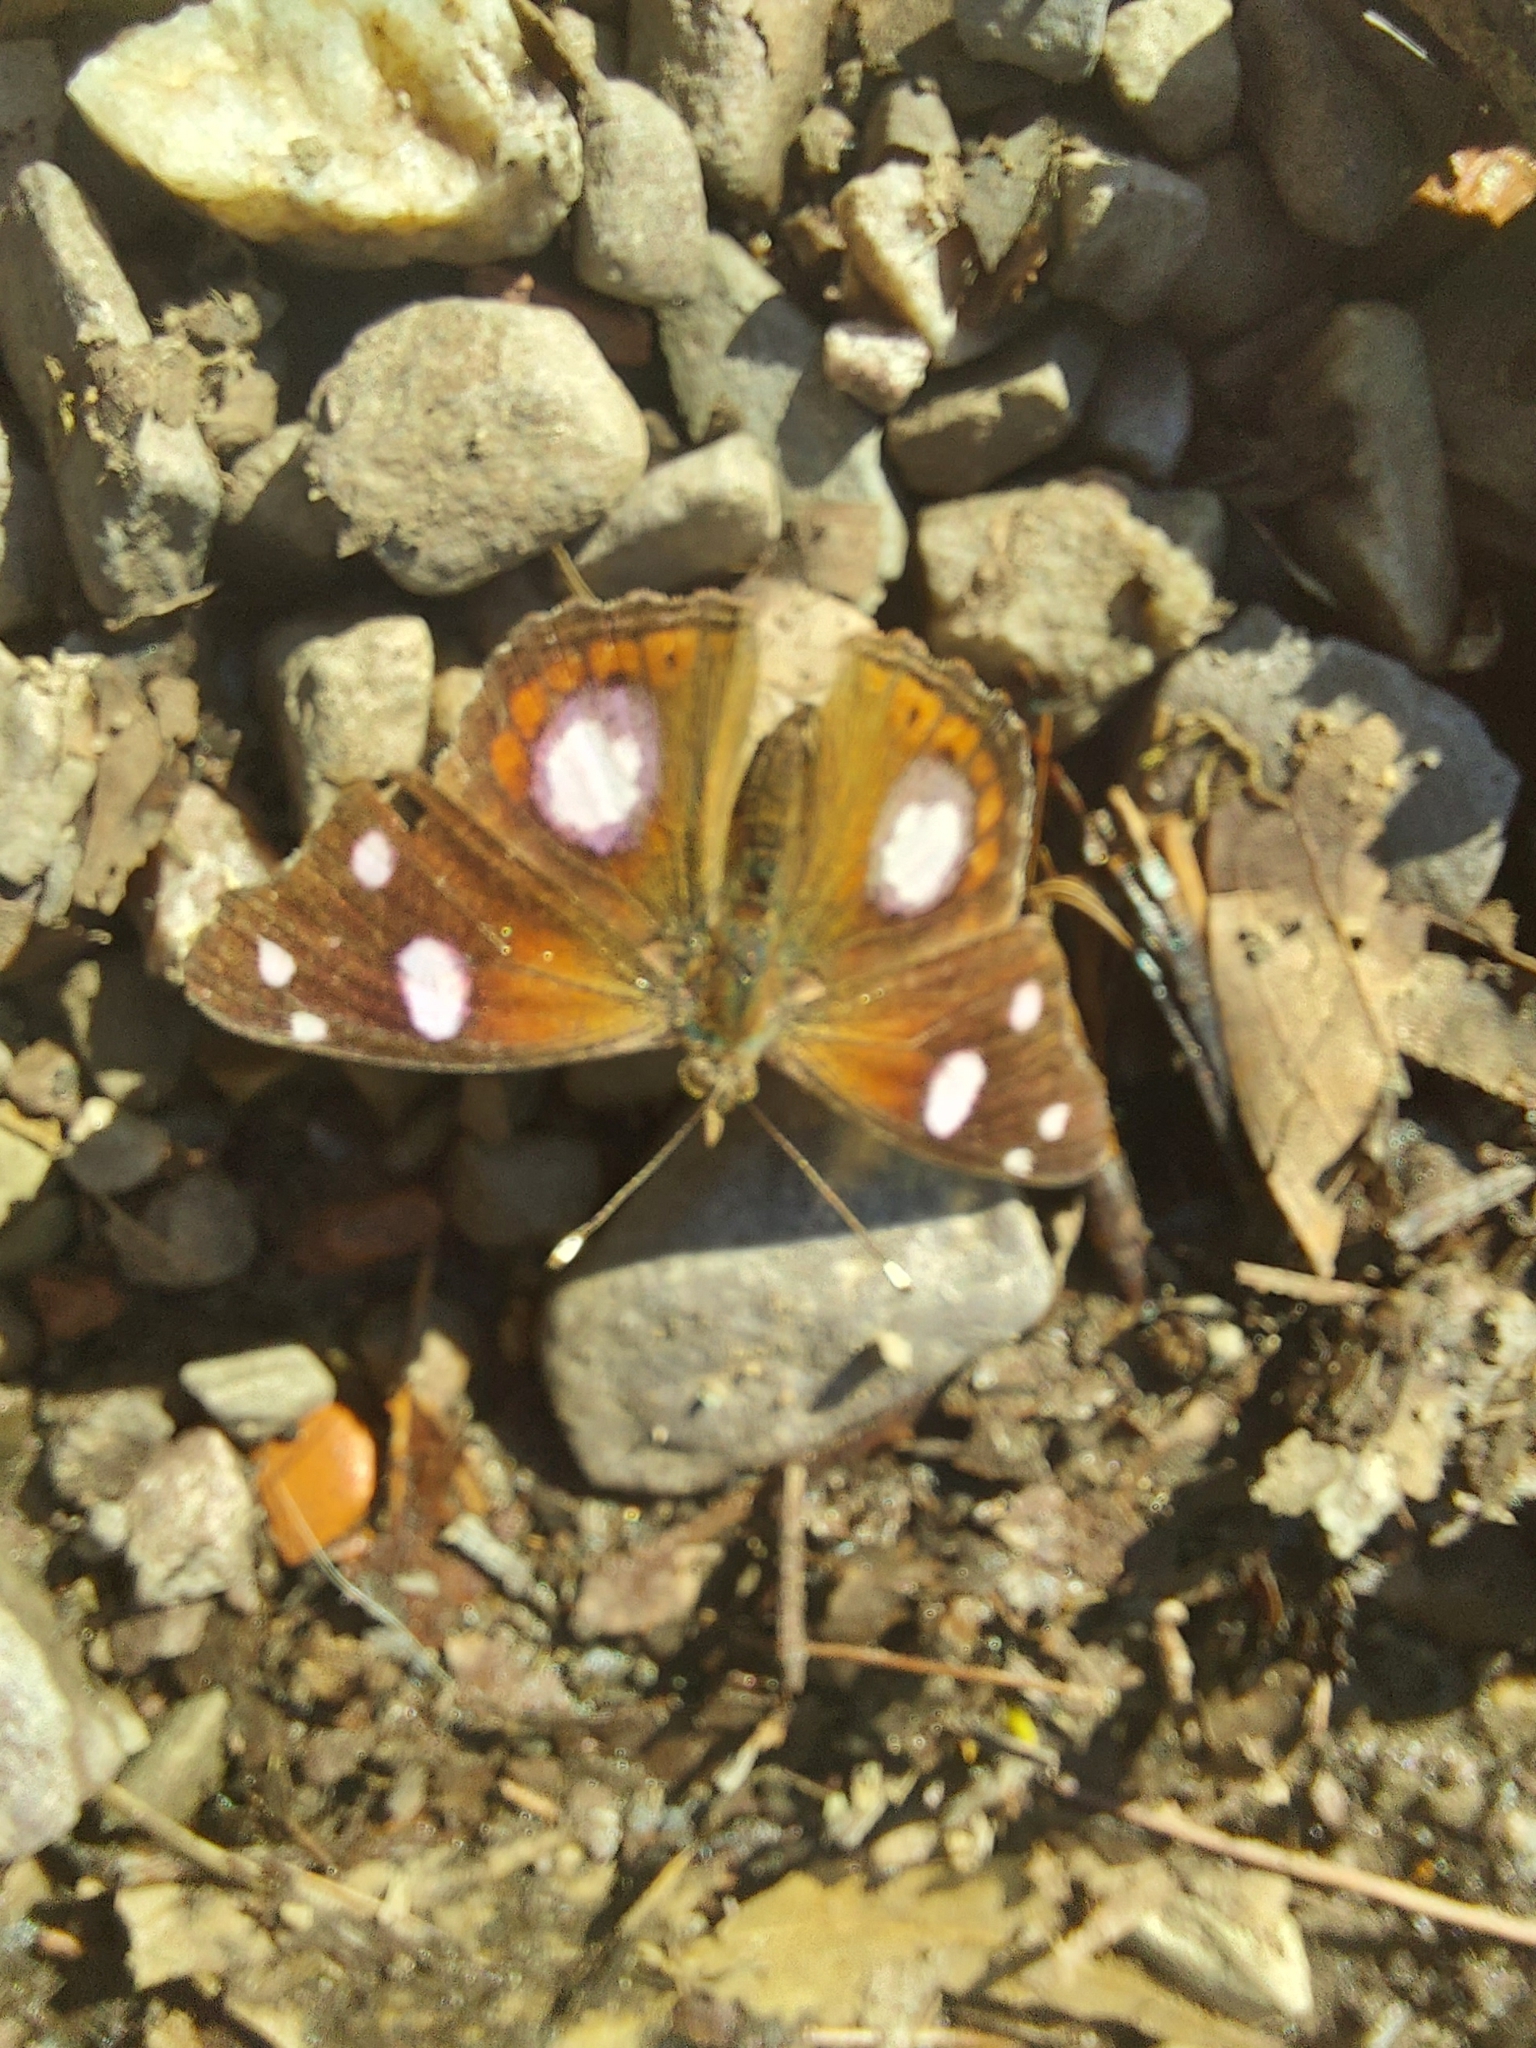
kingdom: Animalia
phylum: Arthropoda
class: Insecta
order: Lepidoptera
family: Nymphalidae
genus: Cybdelis
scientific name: Cybdelis
